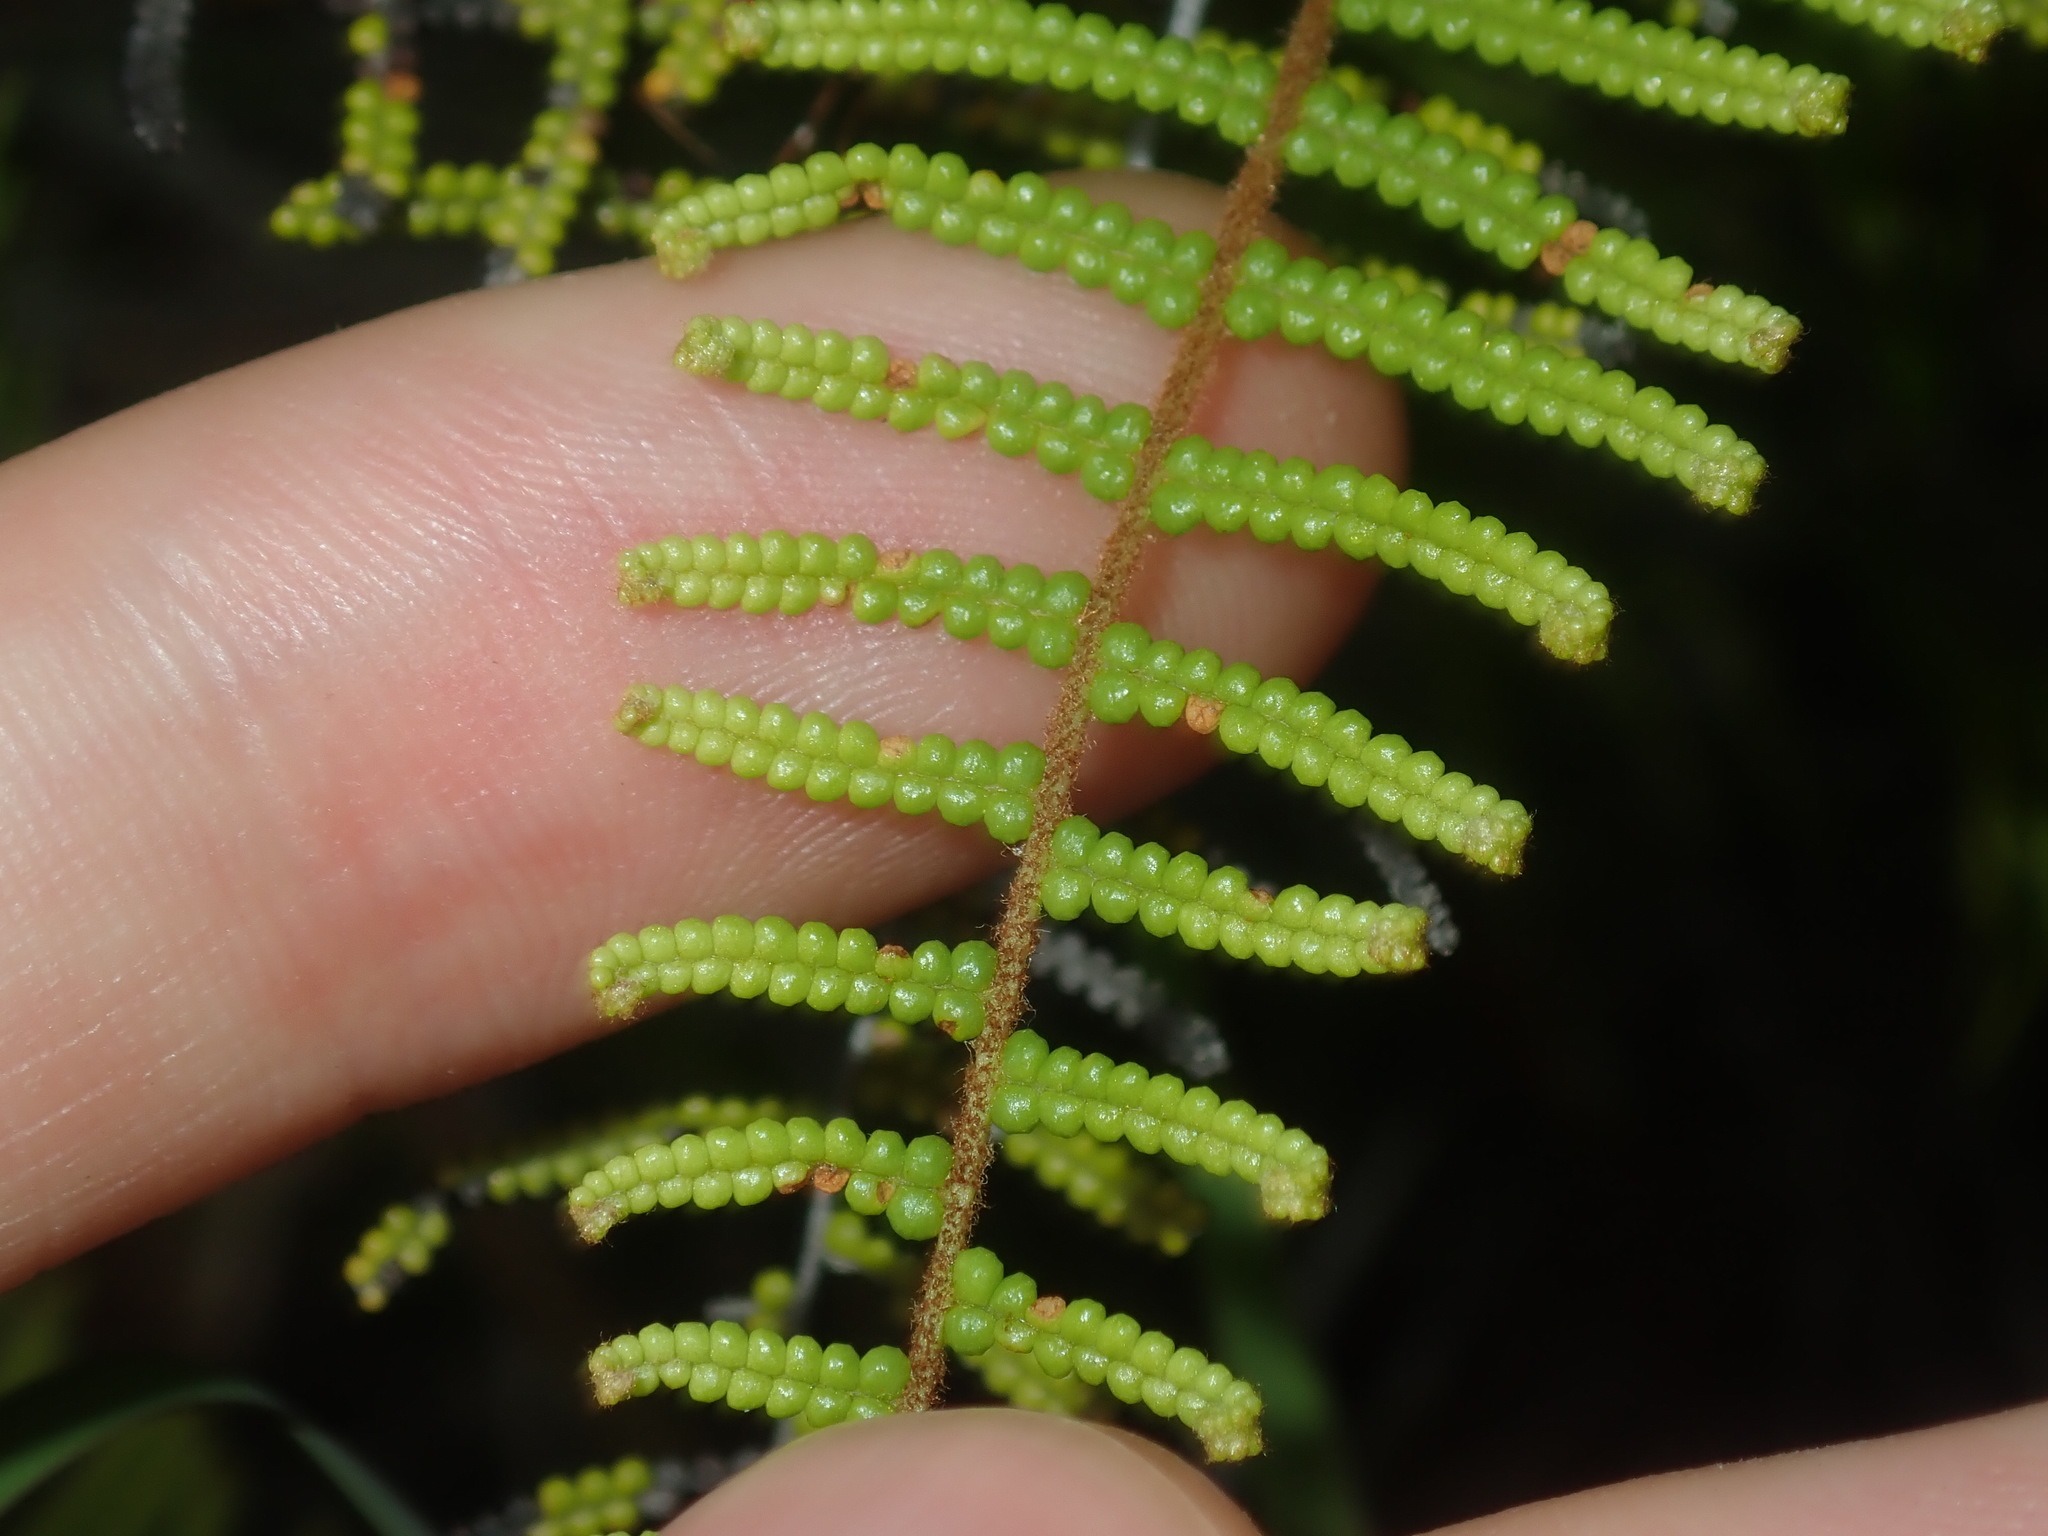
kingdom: Plantae
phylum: Tracheophyta
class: Polypodiopsida
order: Gleicheniales
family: Gleicheniaceae
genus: Gleichenia
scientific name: Gleichenia dicarpa
